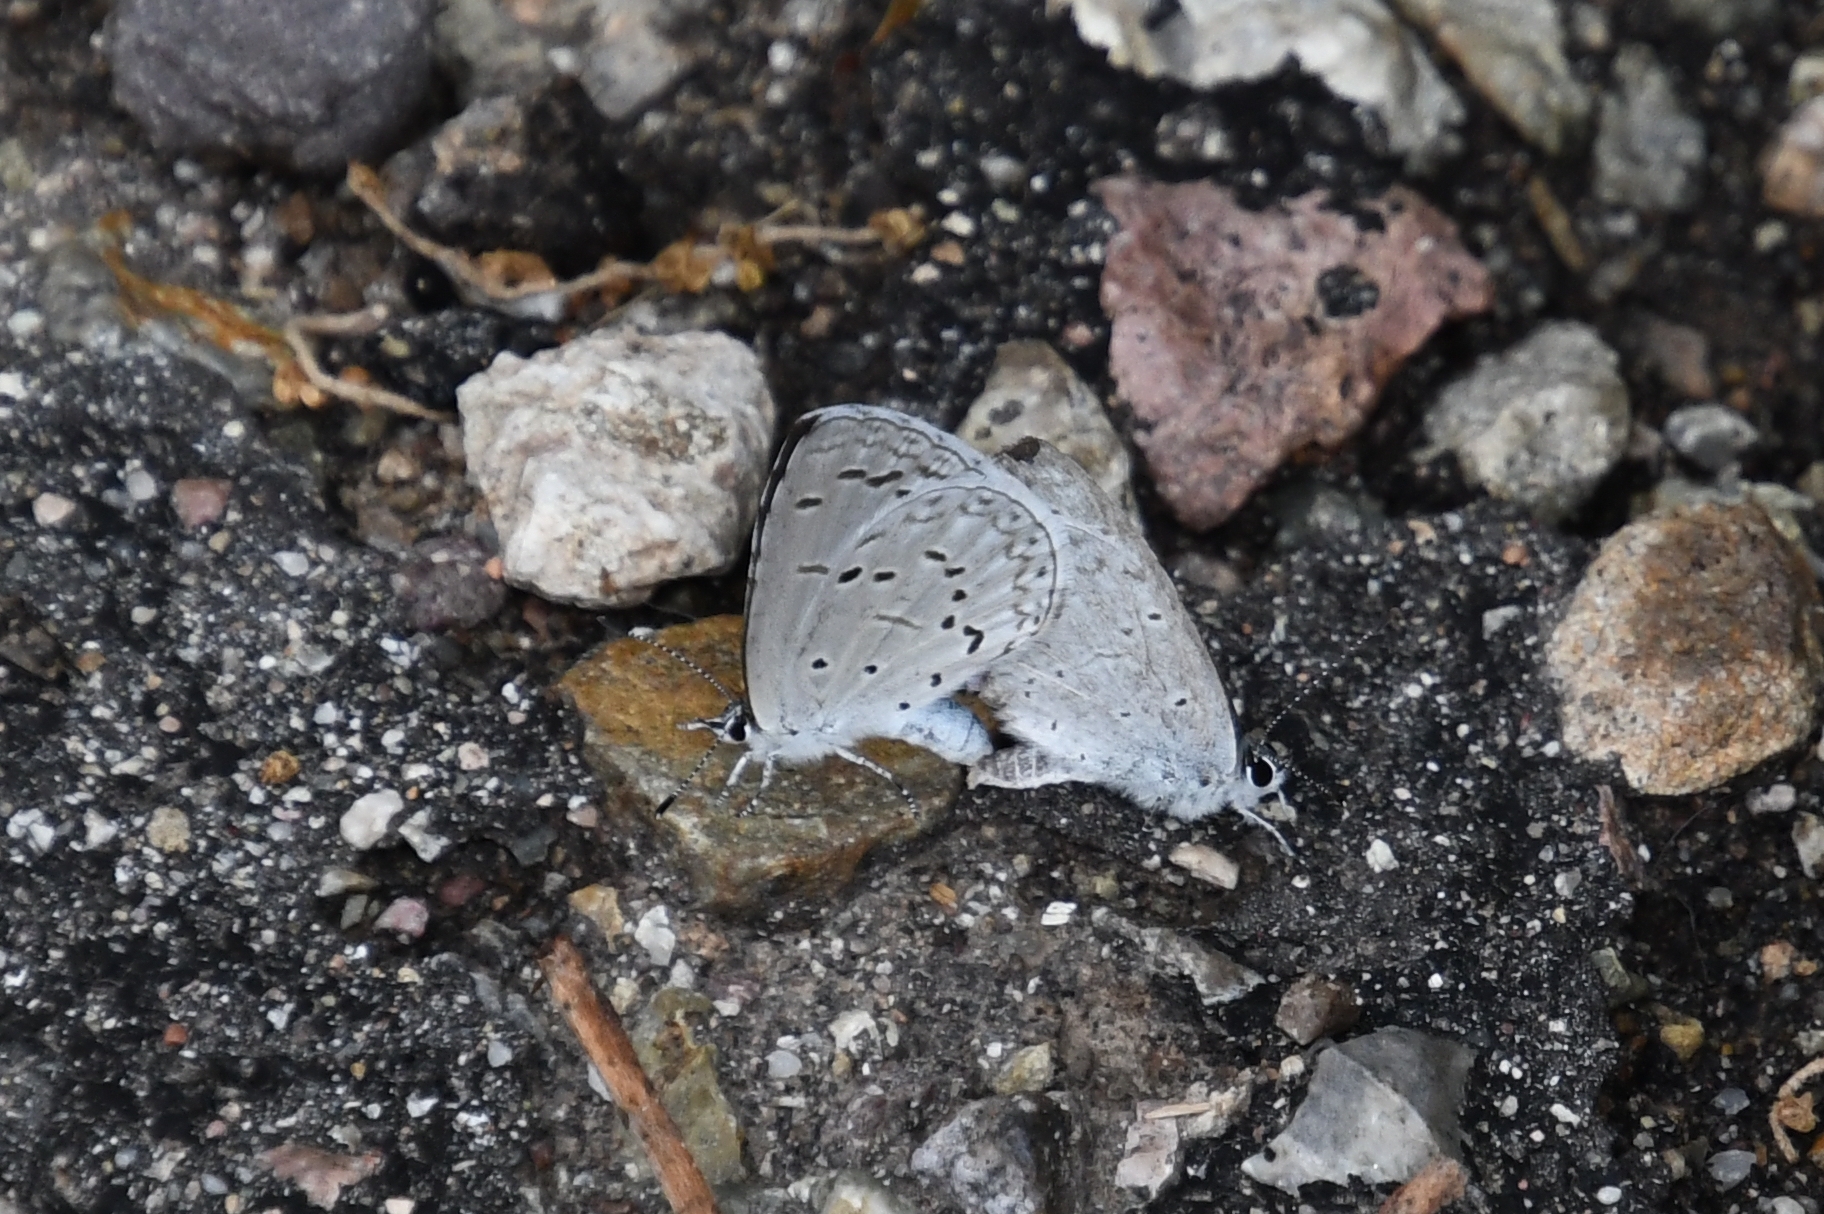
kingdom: Animalia
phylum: Arthropoda
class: Insecta
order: Lepidoptera
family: Lycaenidae
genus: Celastrina
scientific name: Celastrina ladon
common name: Spring azure
